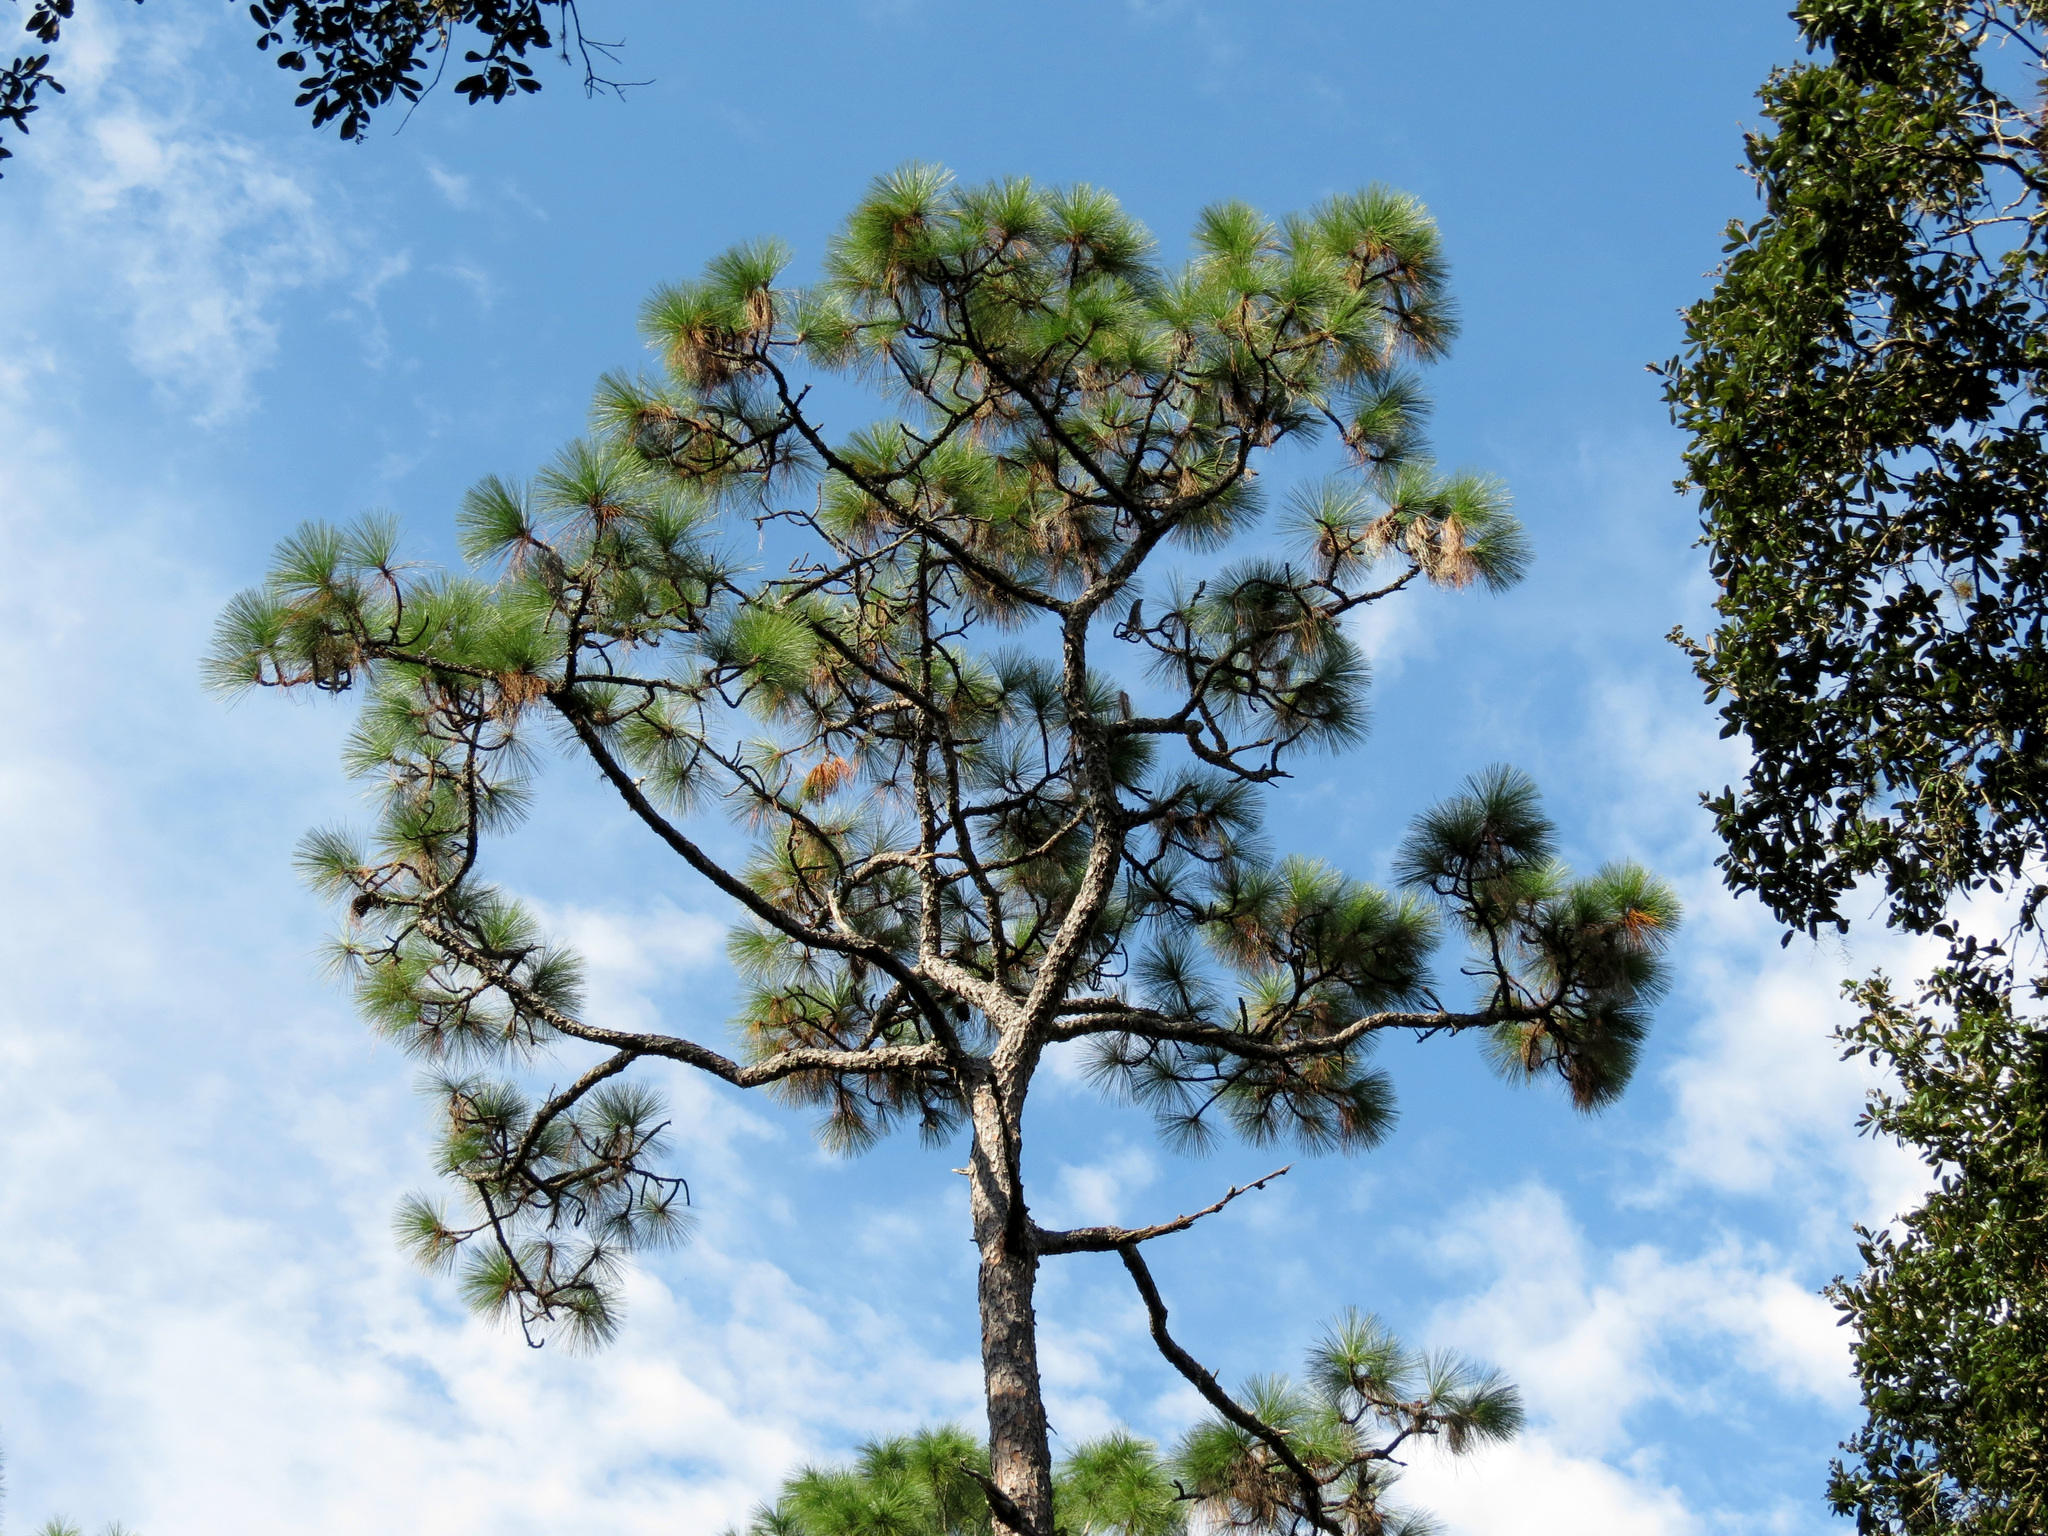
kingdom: Plantae
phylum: Tracheophyta
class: Pinopsida
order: Pinales
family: Pinaceae
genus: Pinus
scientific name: Pinus elliottii
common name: Slash pine
